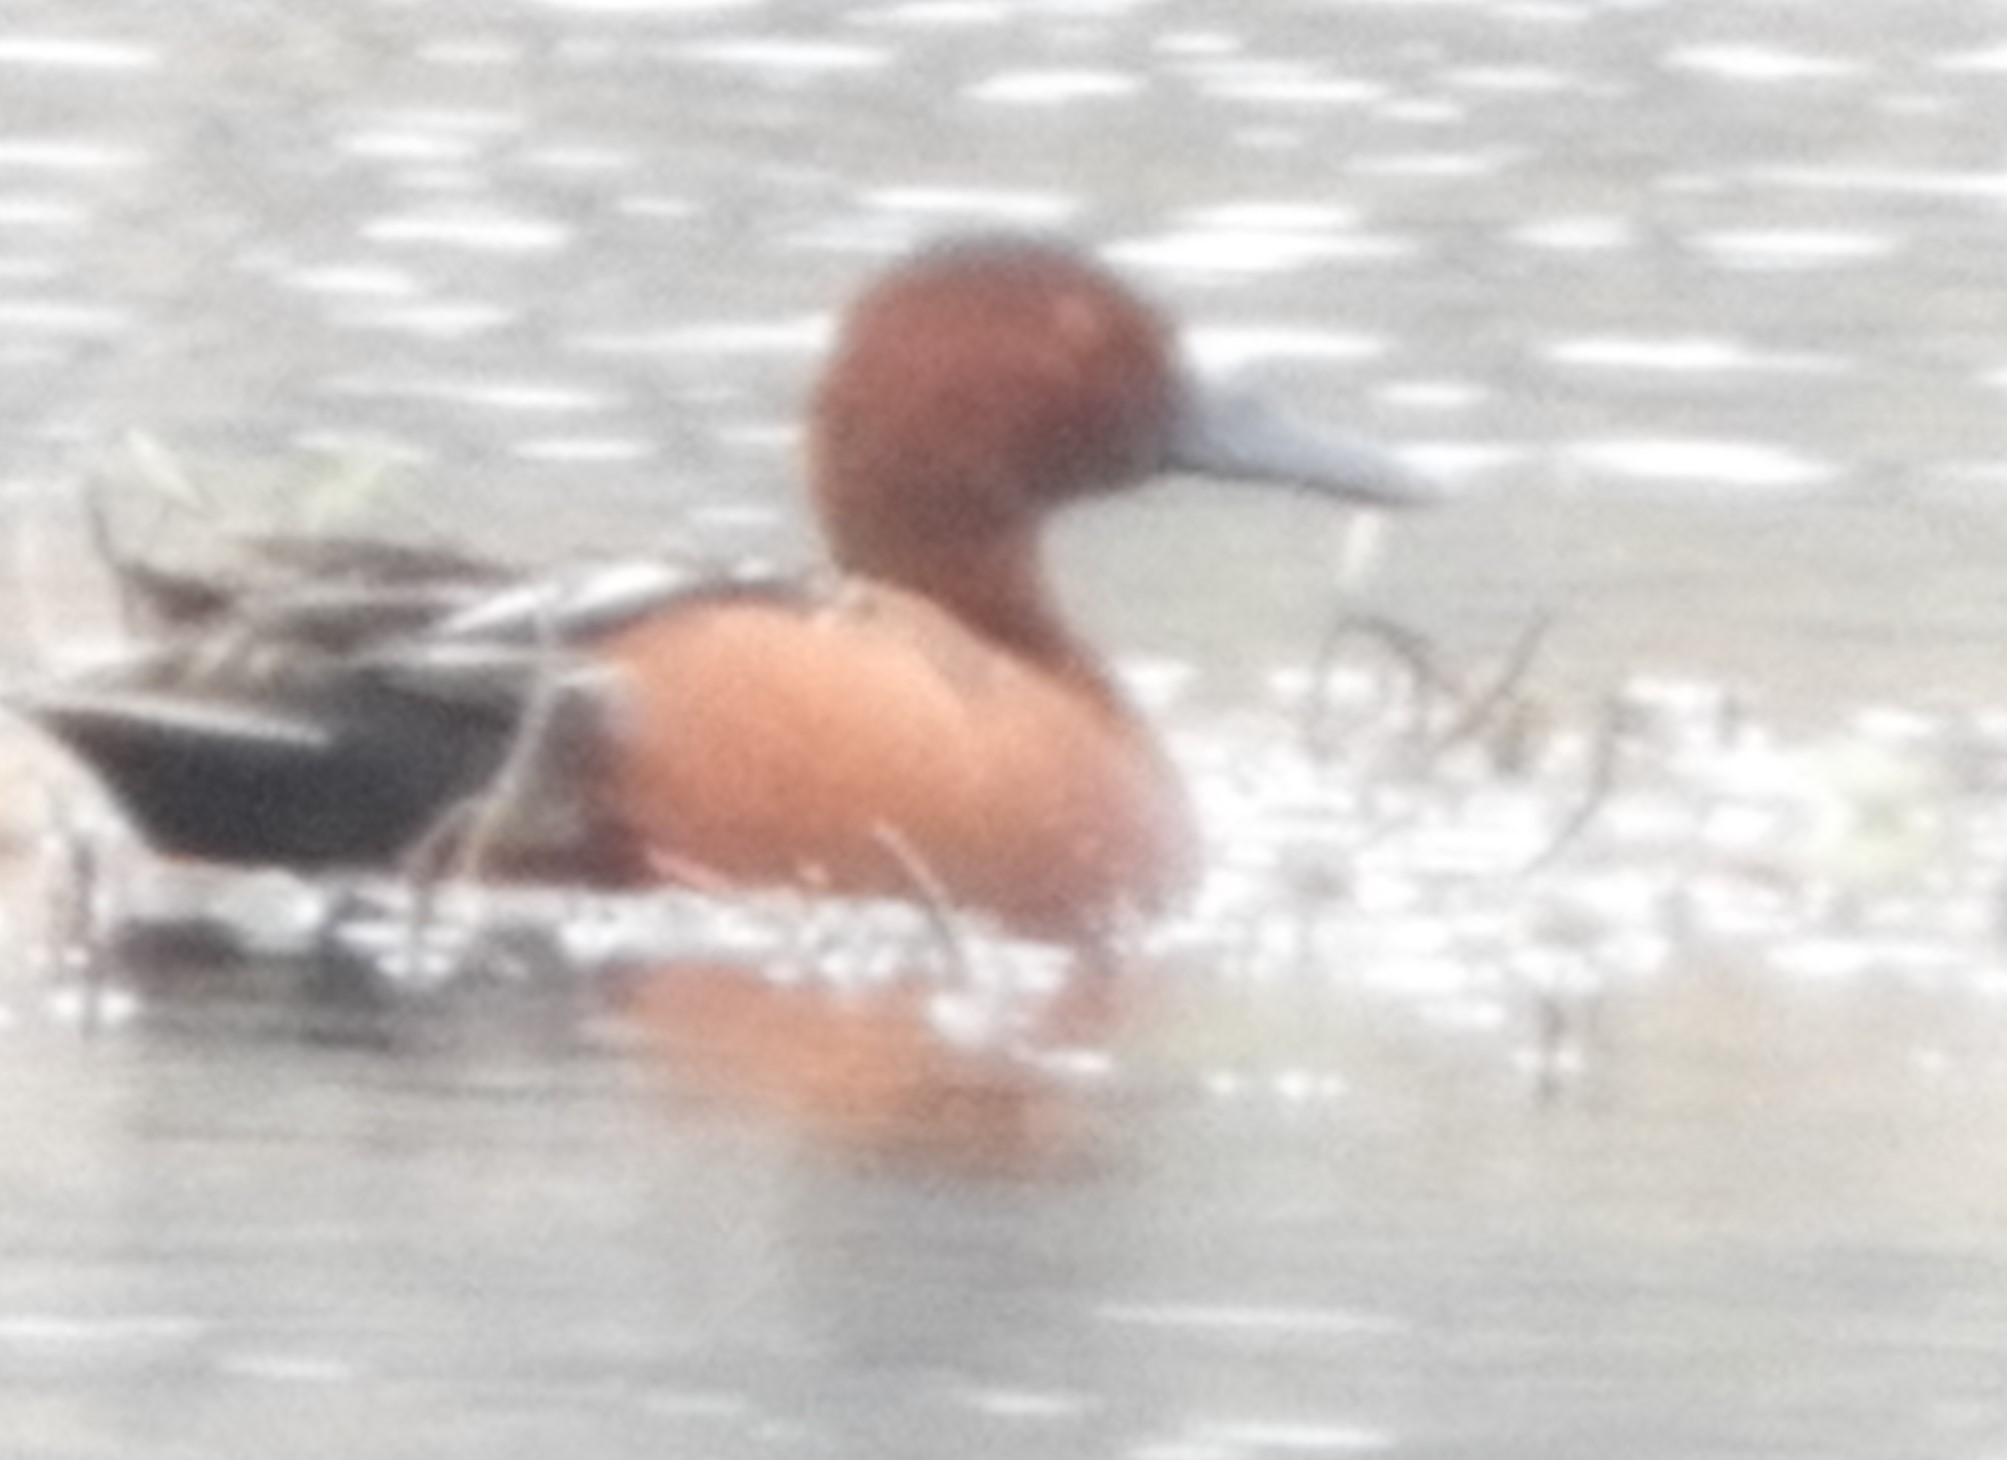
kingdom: Animalia
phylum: Chordata
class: Aves
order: Anseriformes
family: Anatidae
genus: Spatula
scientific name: Spatula cyanoptera
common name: Cinnamon teal
